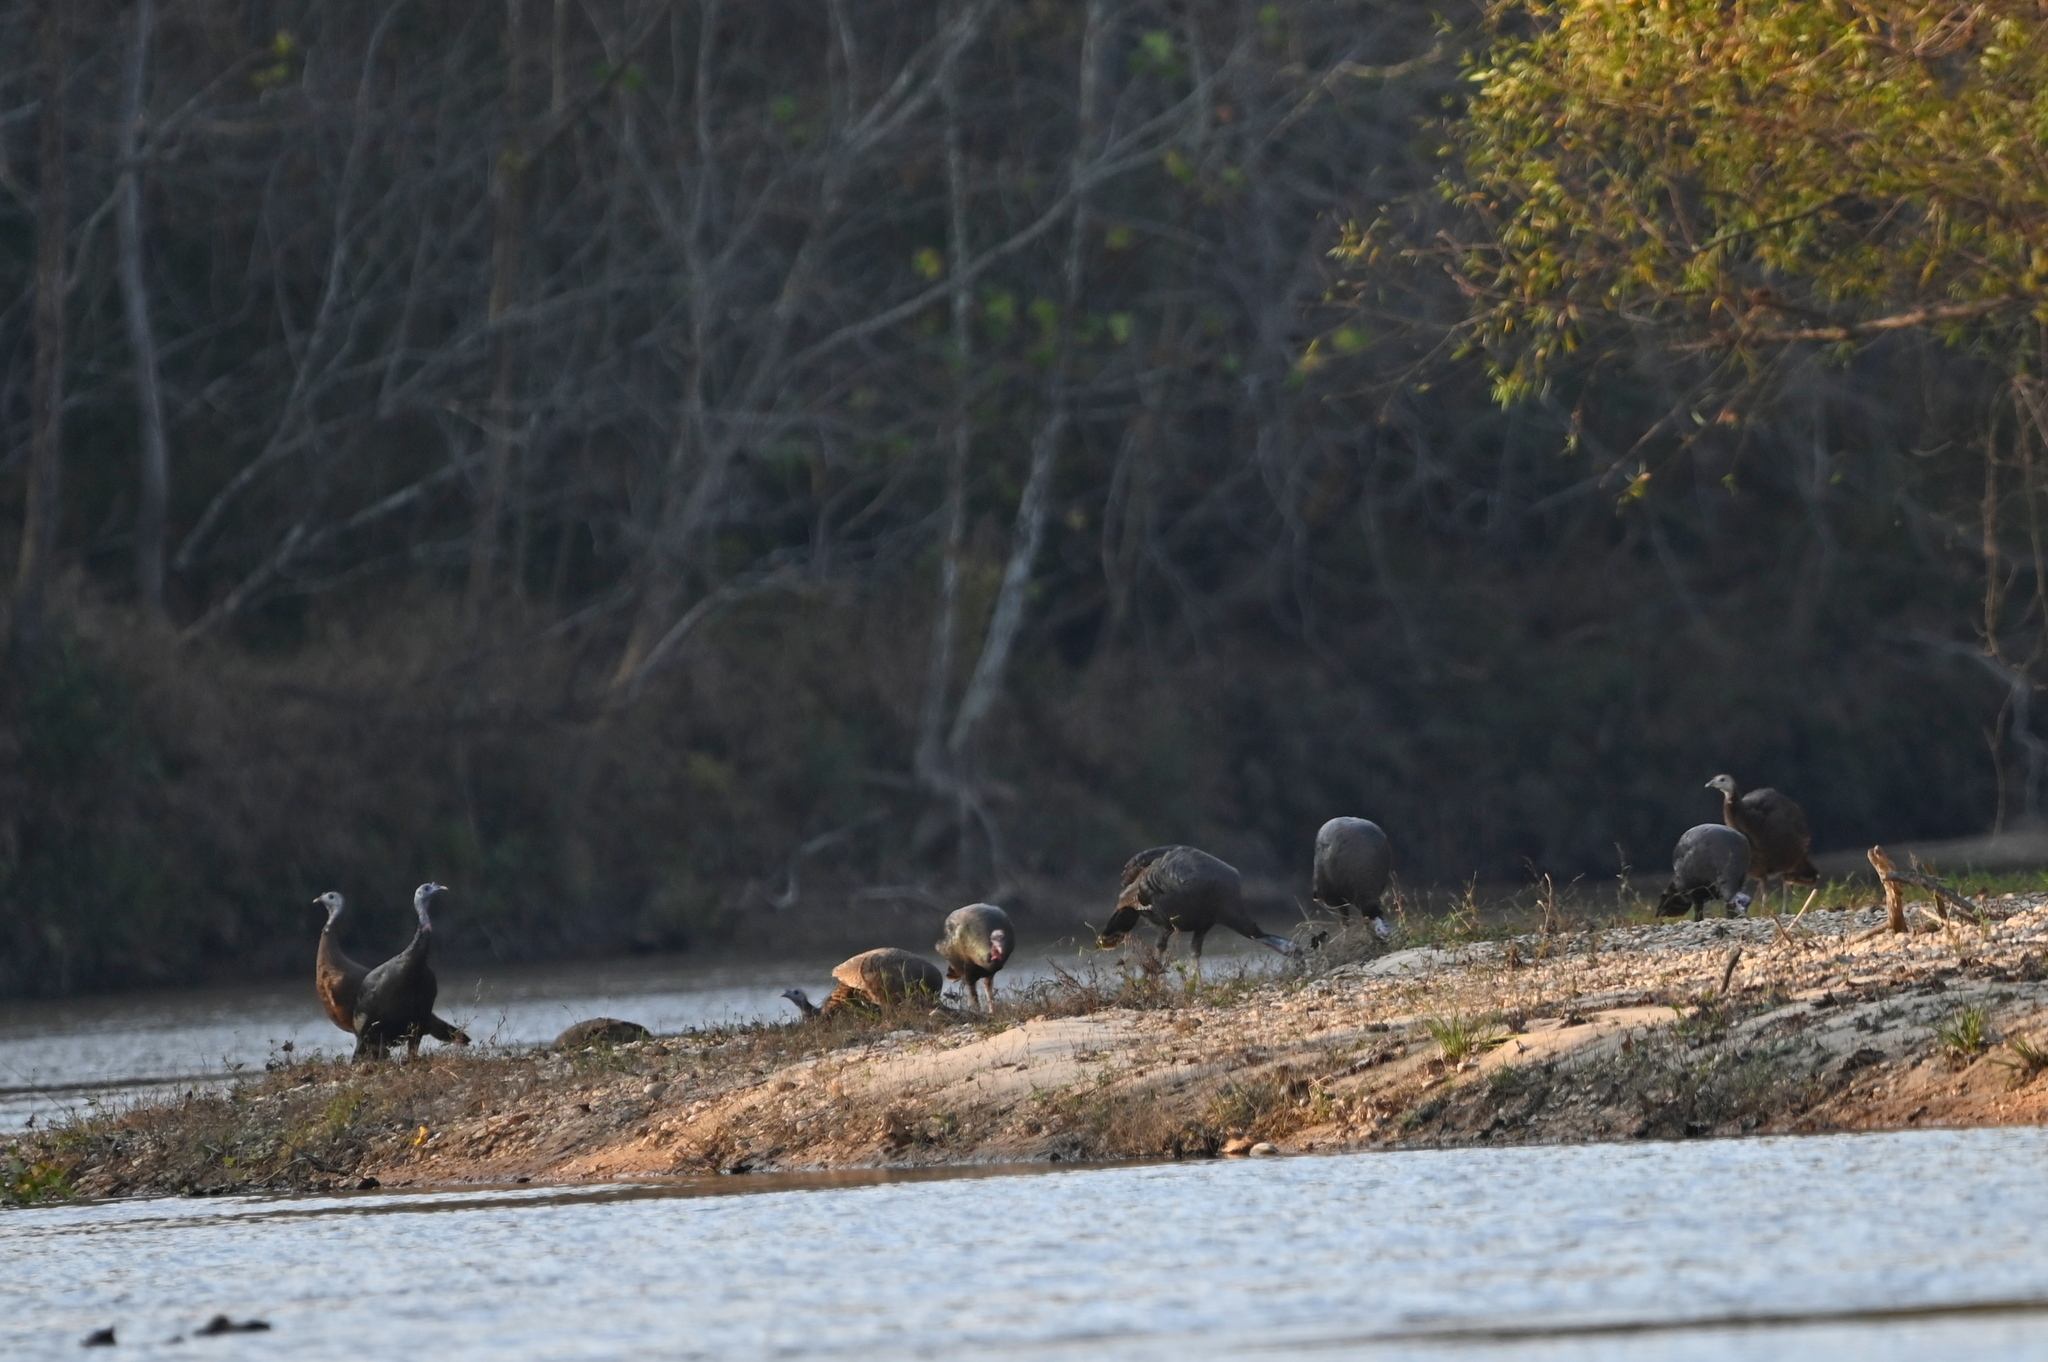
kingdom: Animalia
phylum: Chordata
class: Aves
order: Galliformes
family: Phasianidae
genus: Meleagris
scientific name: Meleagris gallopavo
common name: Wild turkey
